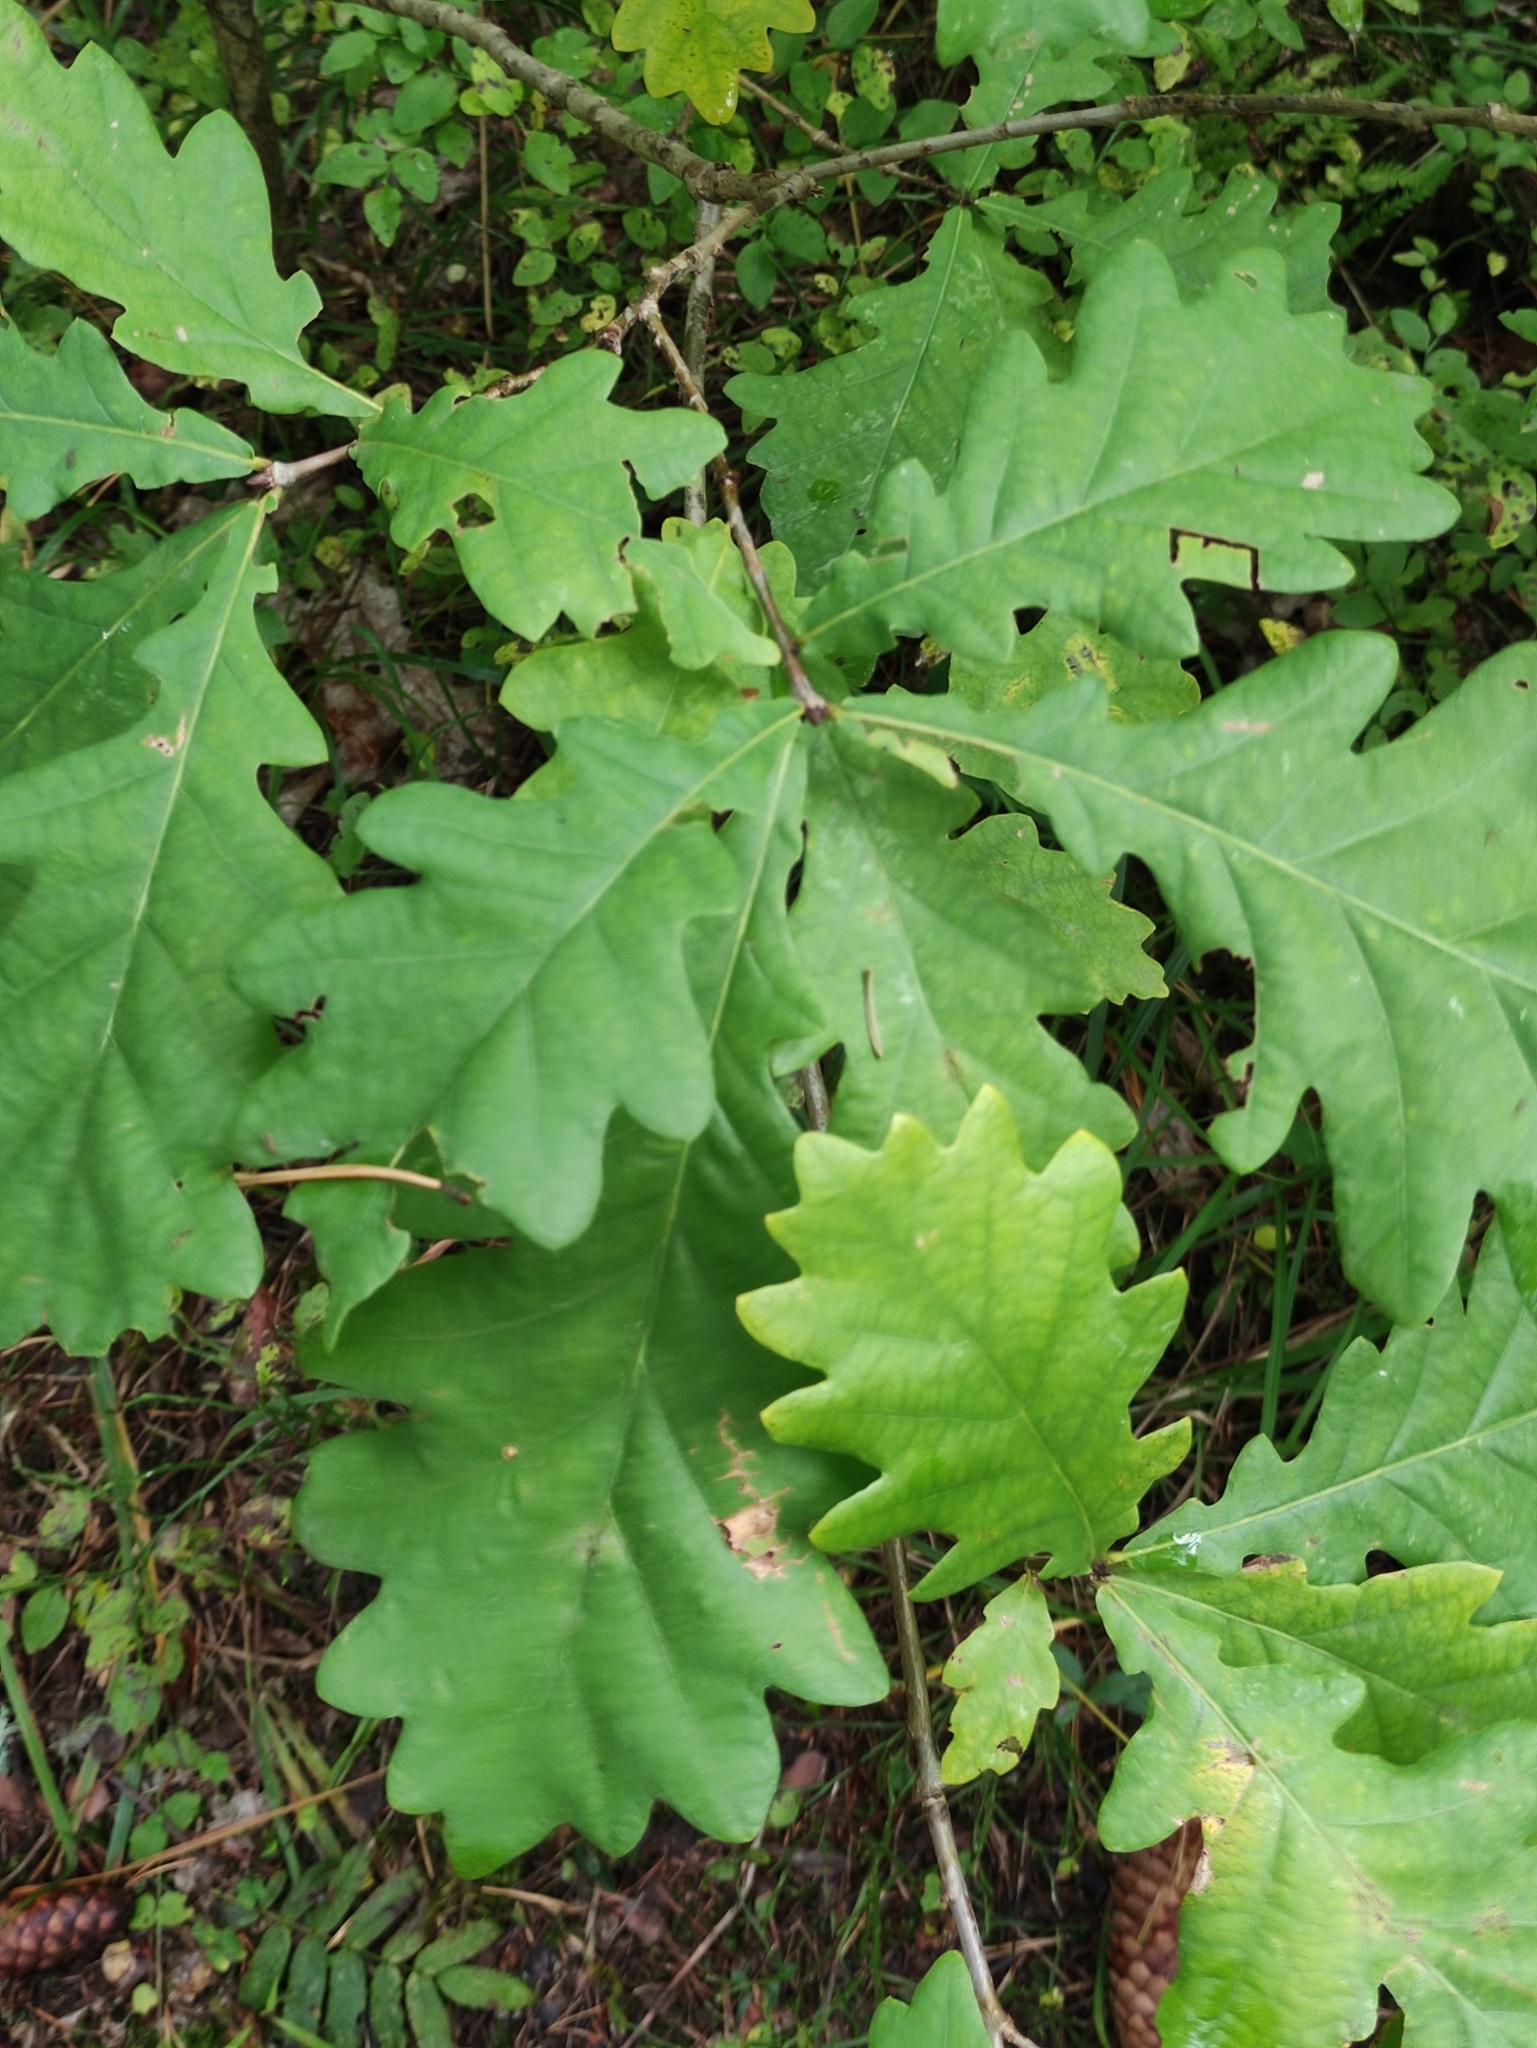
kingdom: Plantae
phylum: Tracheophyta
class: Magnoliopsida
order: Fagales
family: Fagaceae
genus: Quercus
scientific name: Quercus robur
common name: Pedunculate oak
